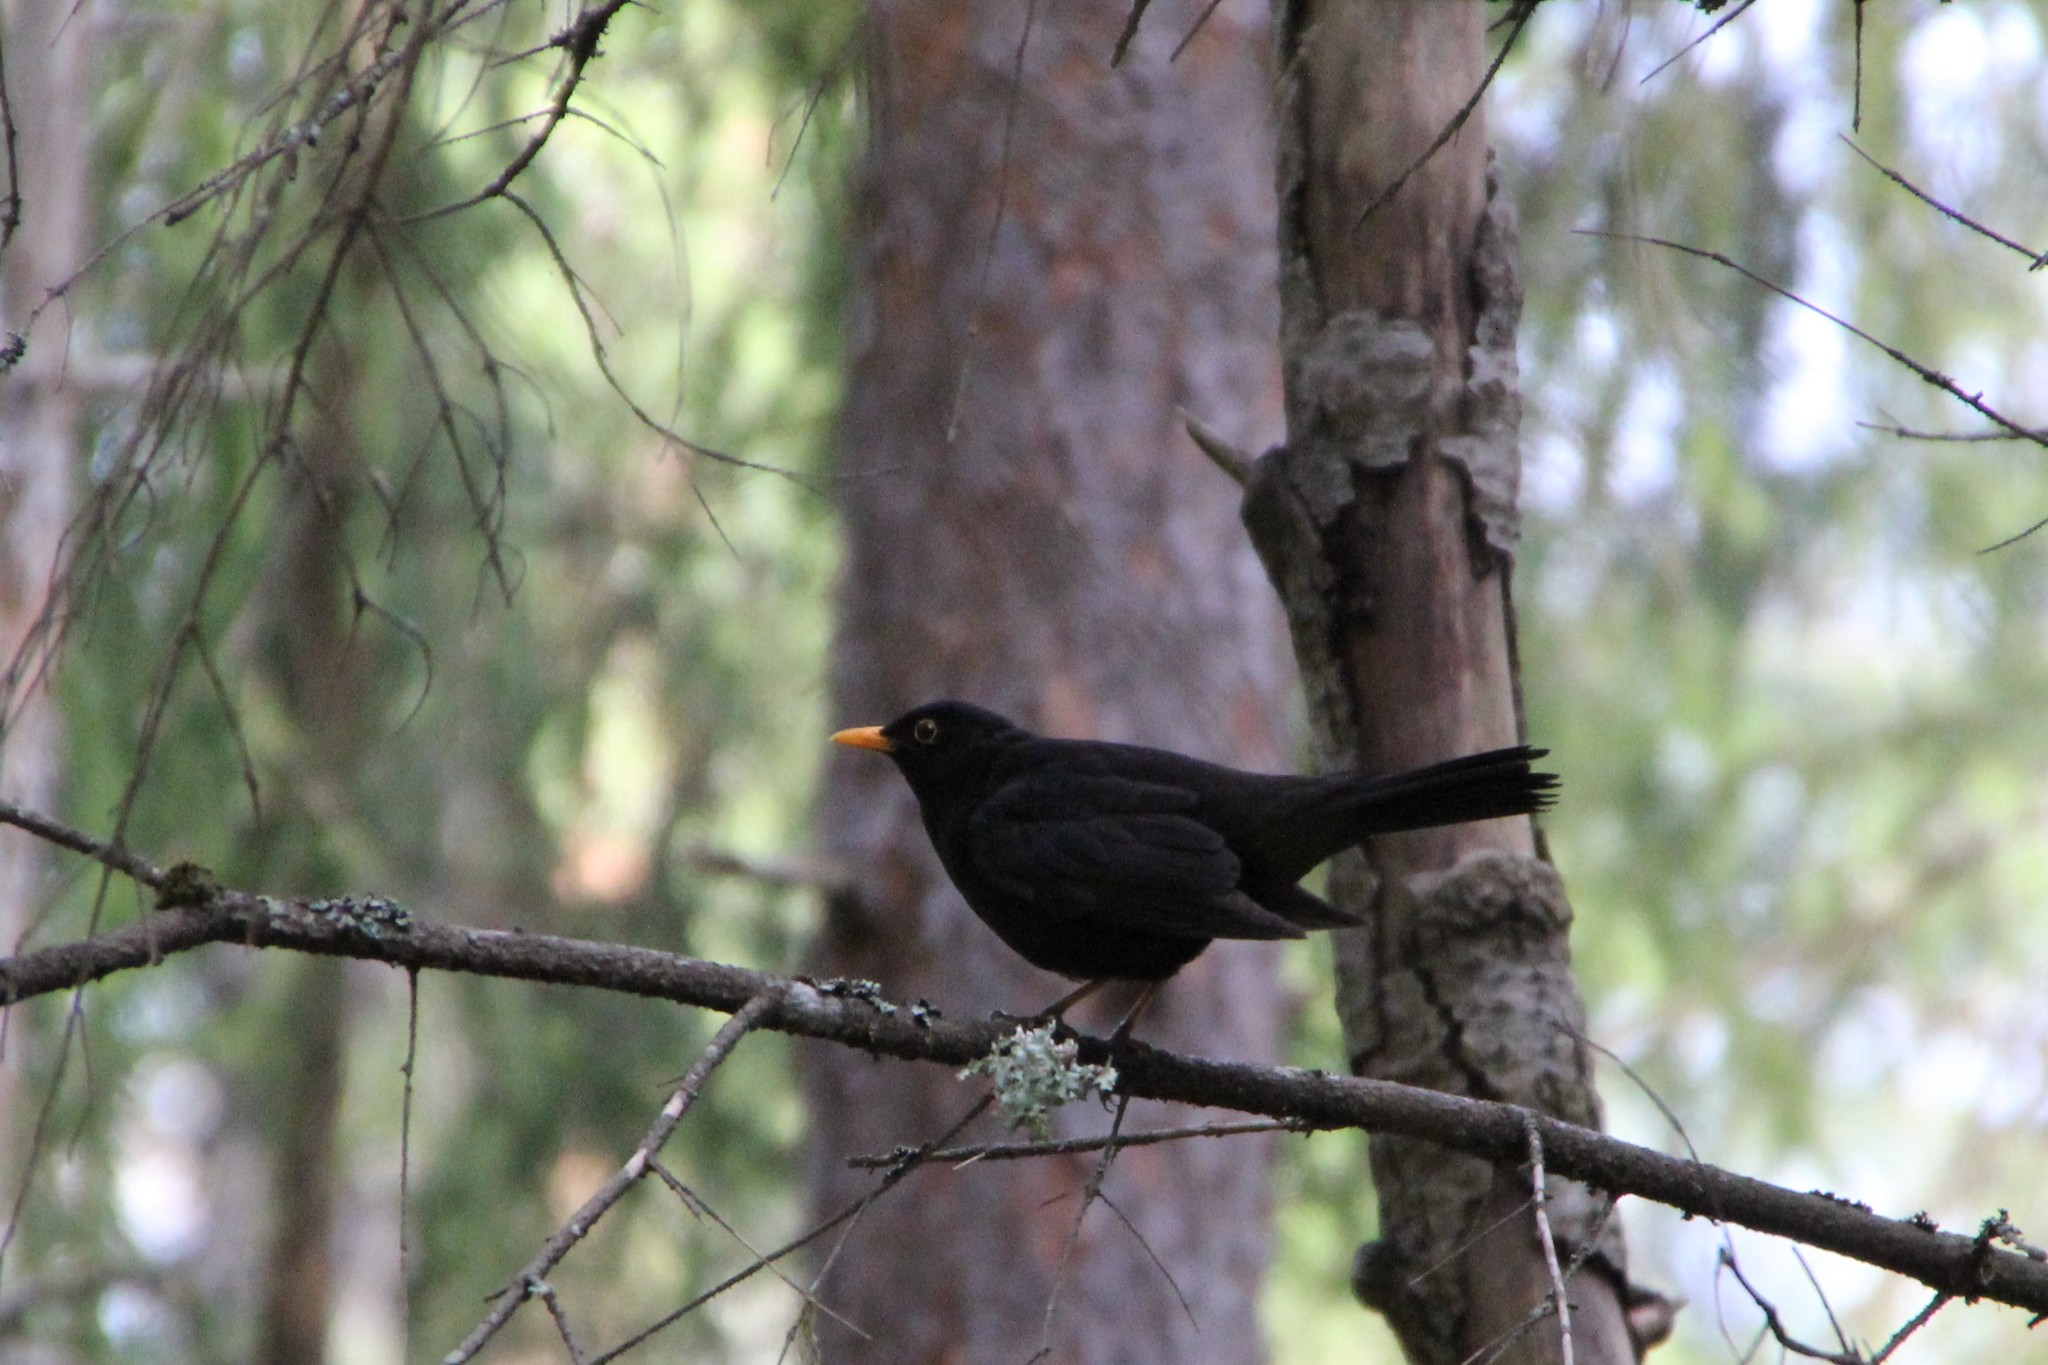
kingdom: Animalia
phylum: Chordata
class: Aves
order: Passeriformes
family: Turdidae
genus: Turdus
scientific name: Turdus merula
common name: Common blackbird
